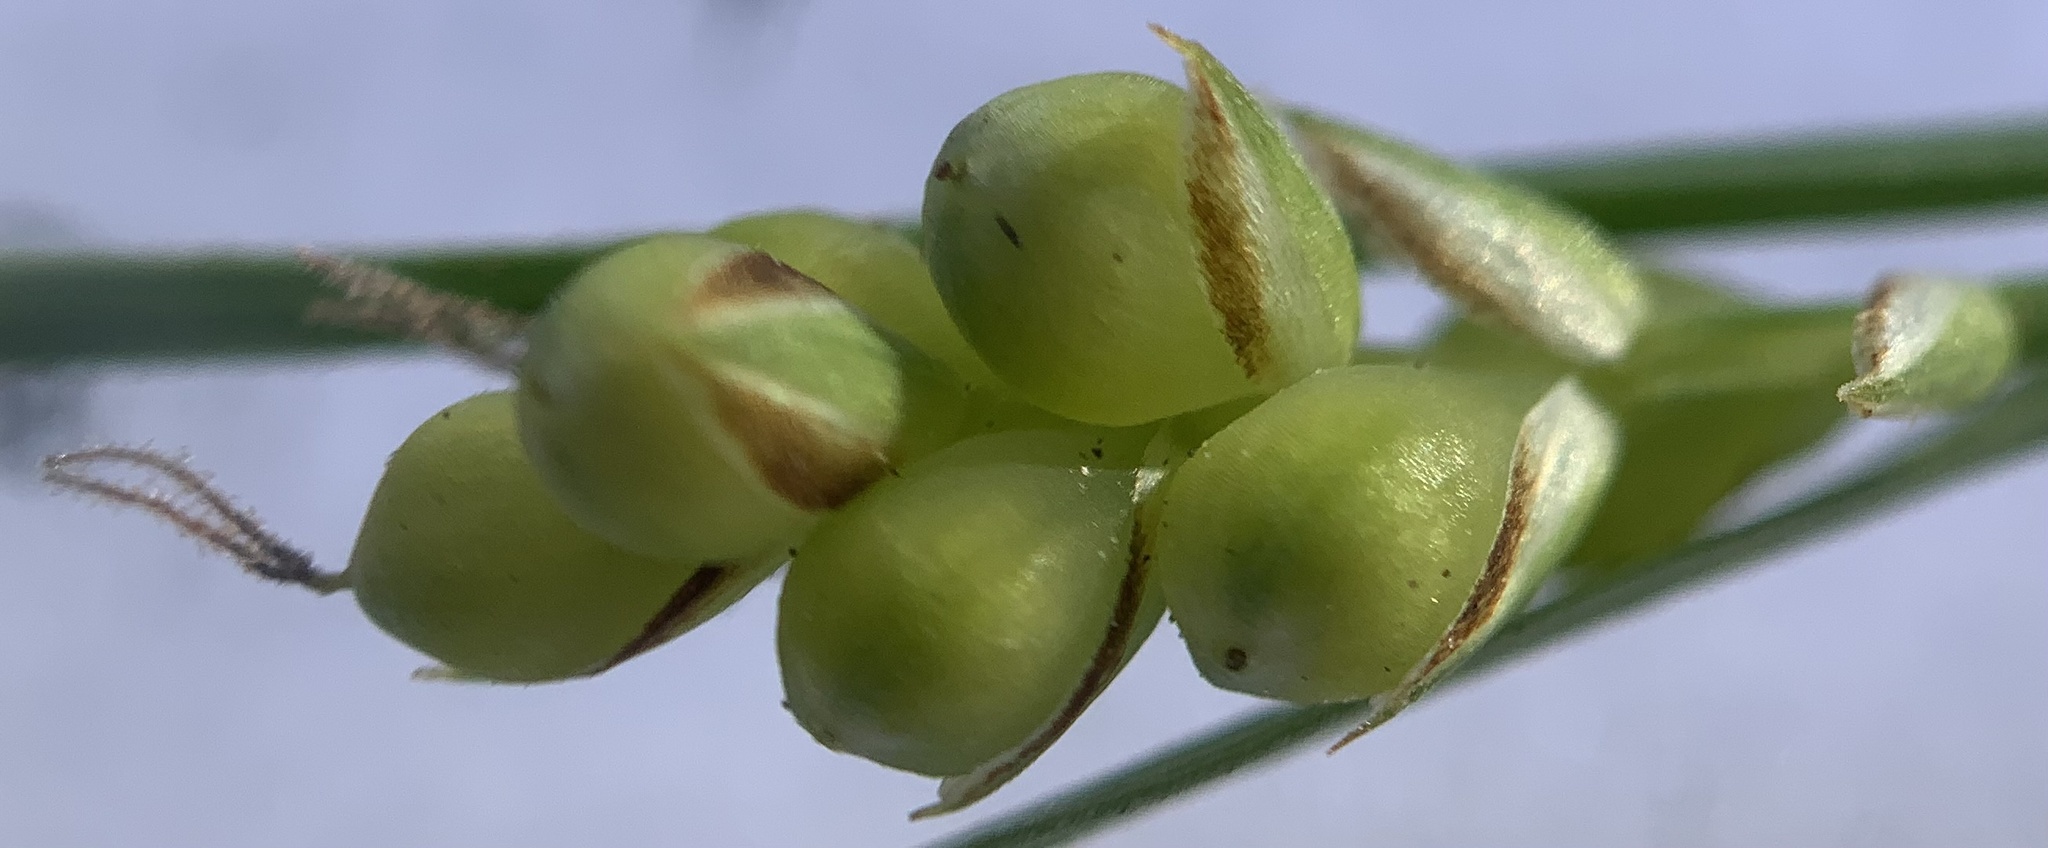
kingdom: Plantae
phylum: Tracheophyta
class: Liliopsida
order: Poales
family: Cyperaceae
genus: Carex
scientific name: Carex aurea
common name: Golden sedge
